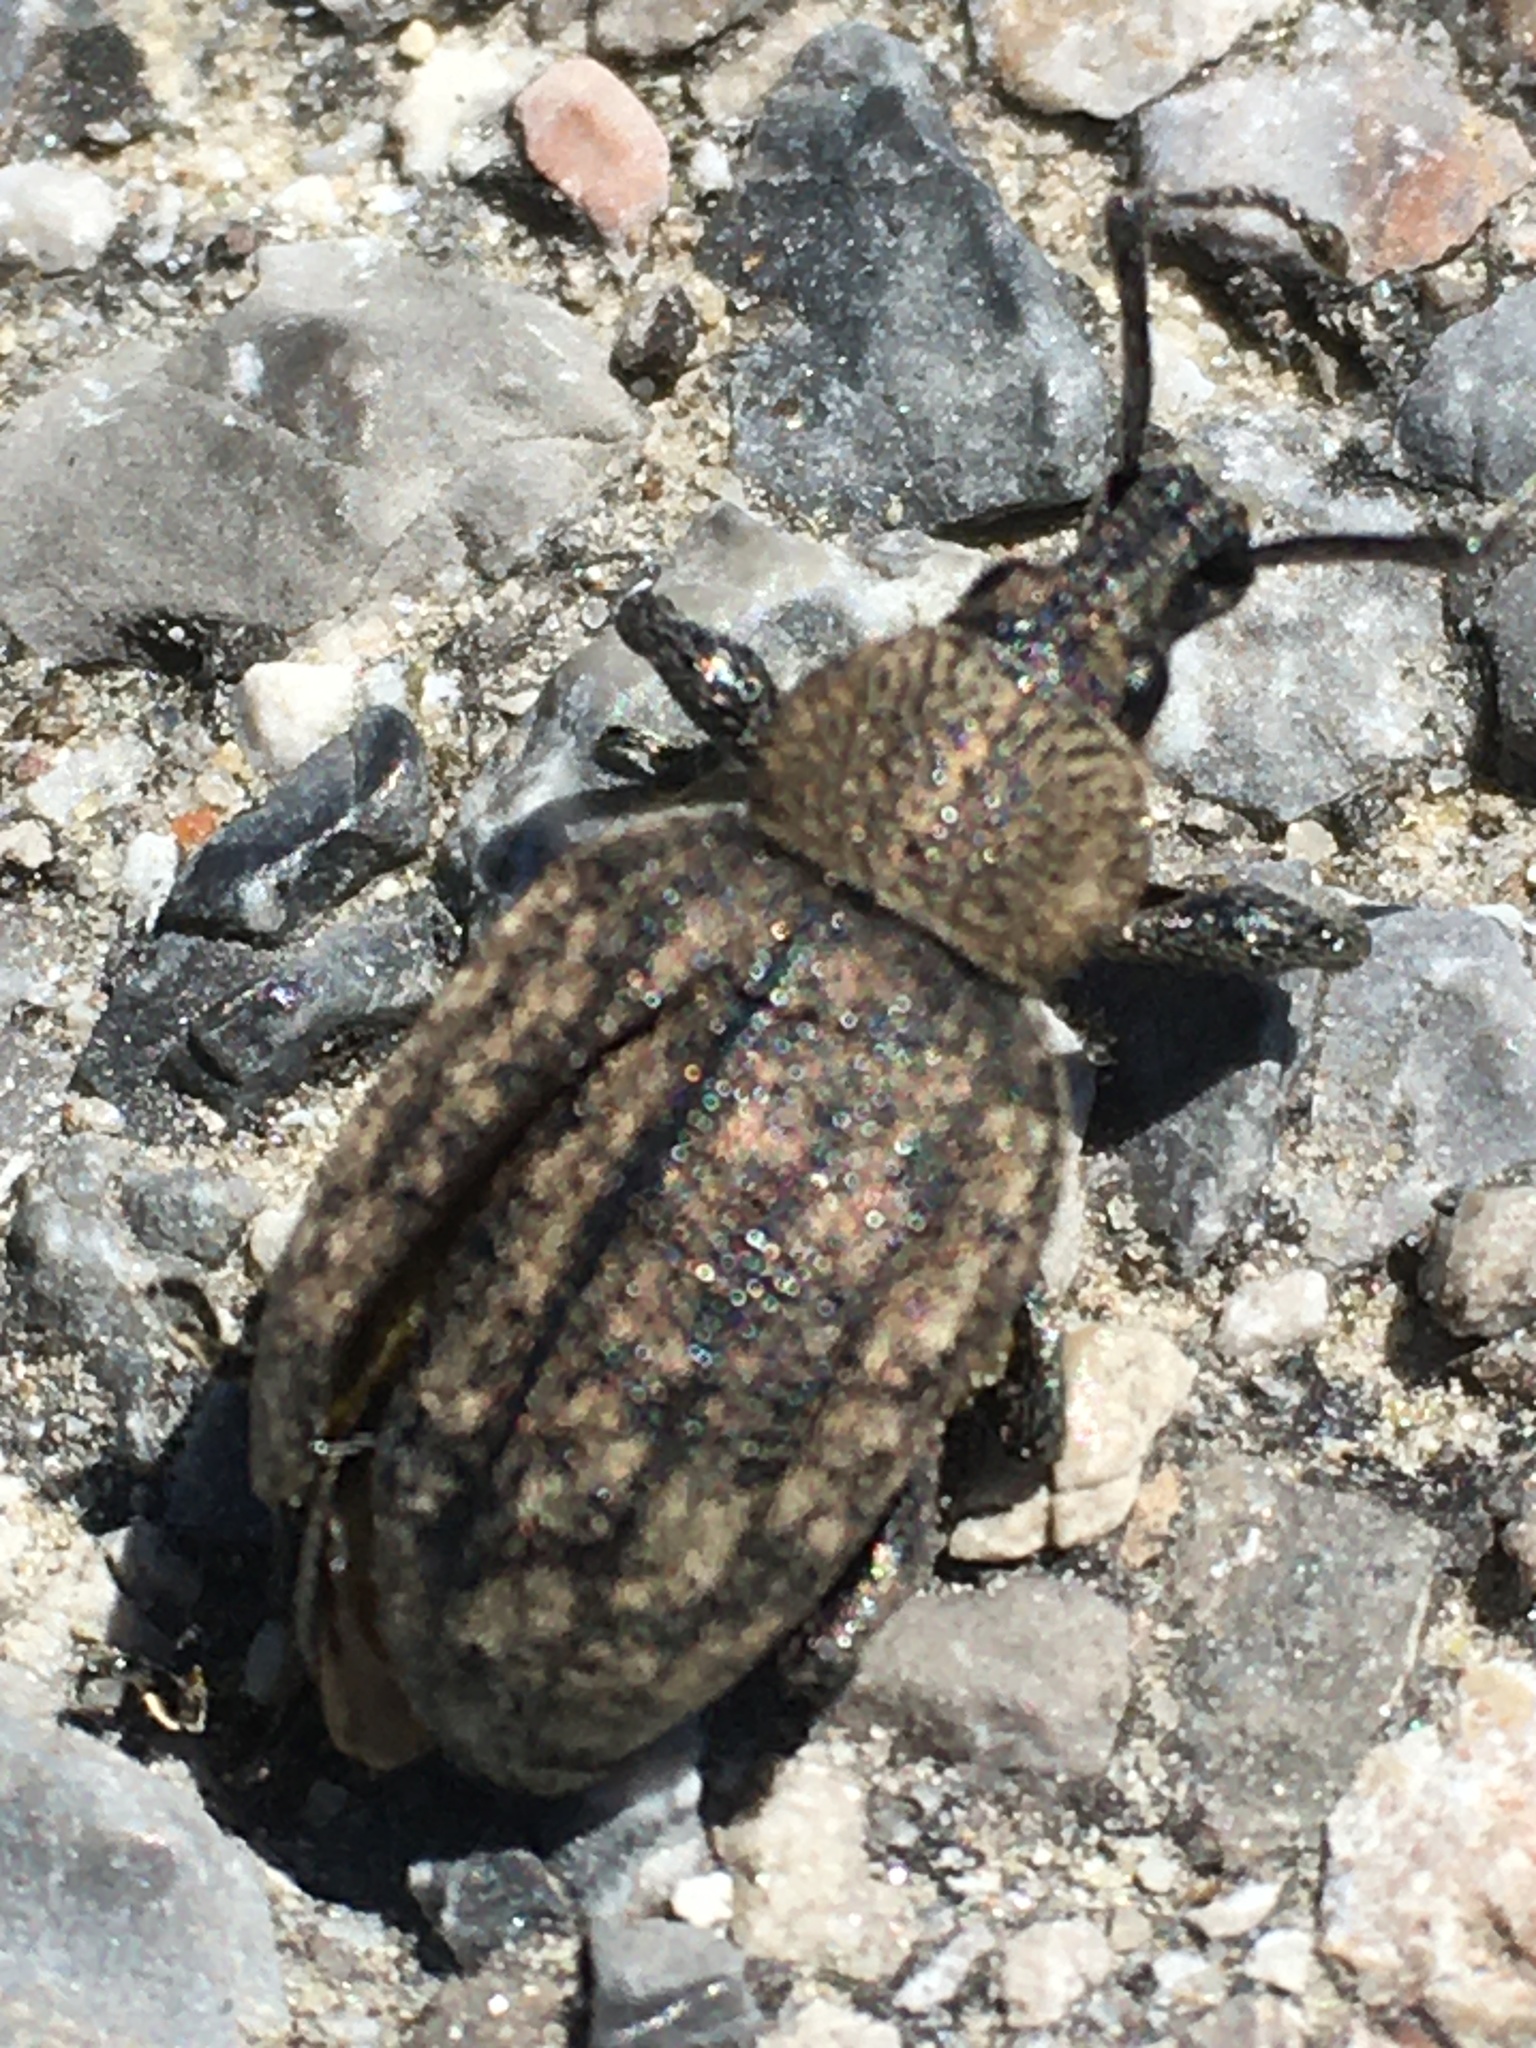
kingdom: Animalia
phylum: Arthropoda
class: Insecta
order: Coleoptera
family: Curculionidae
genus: Otiorhynchus
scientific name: Otiorhynchus ligustici
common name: Weevil
